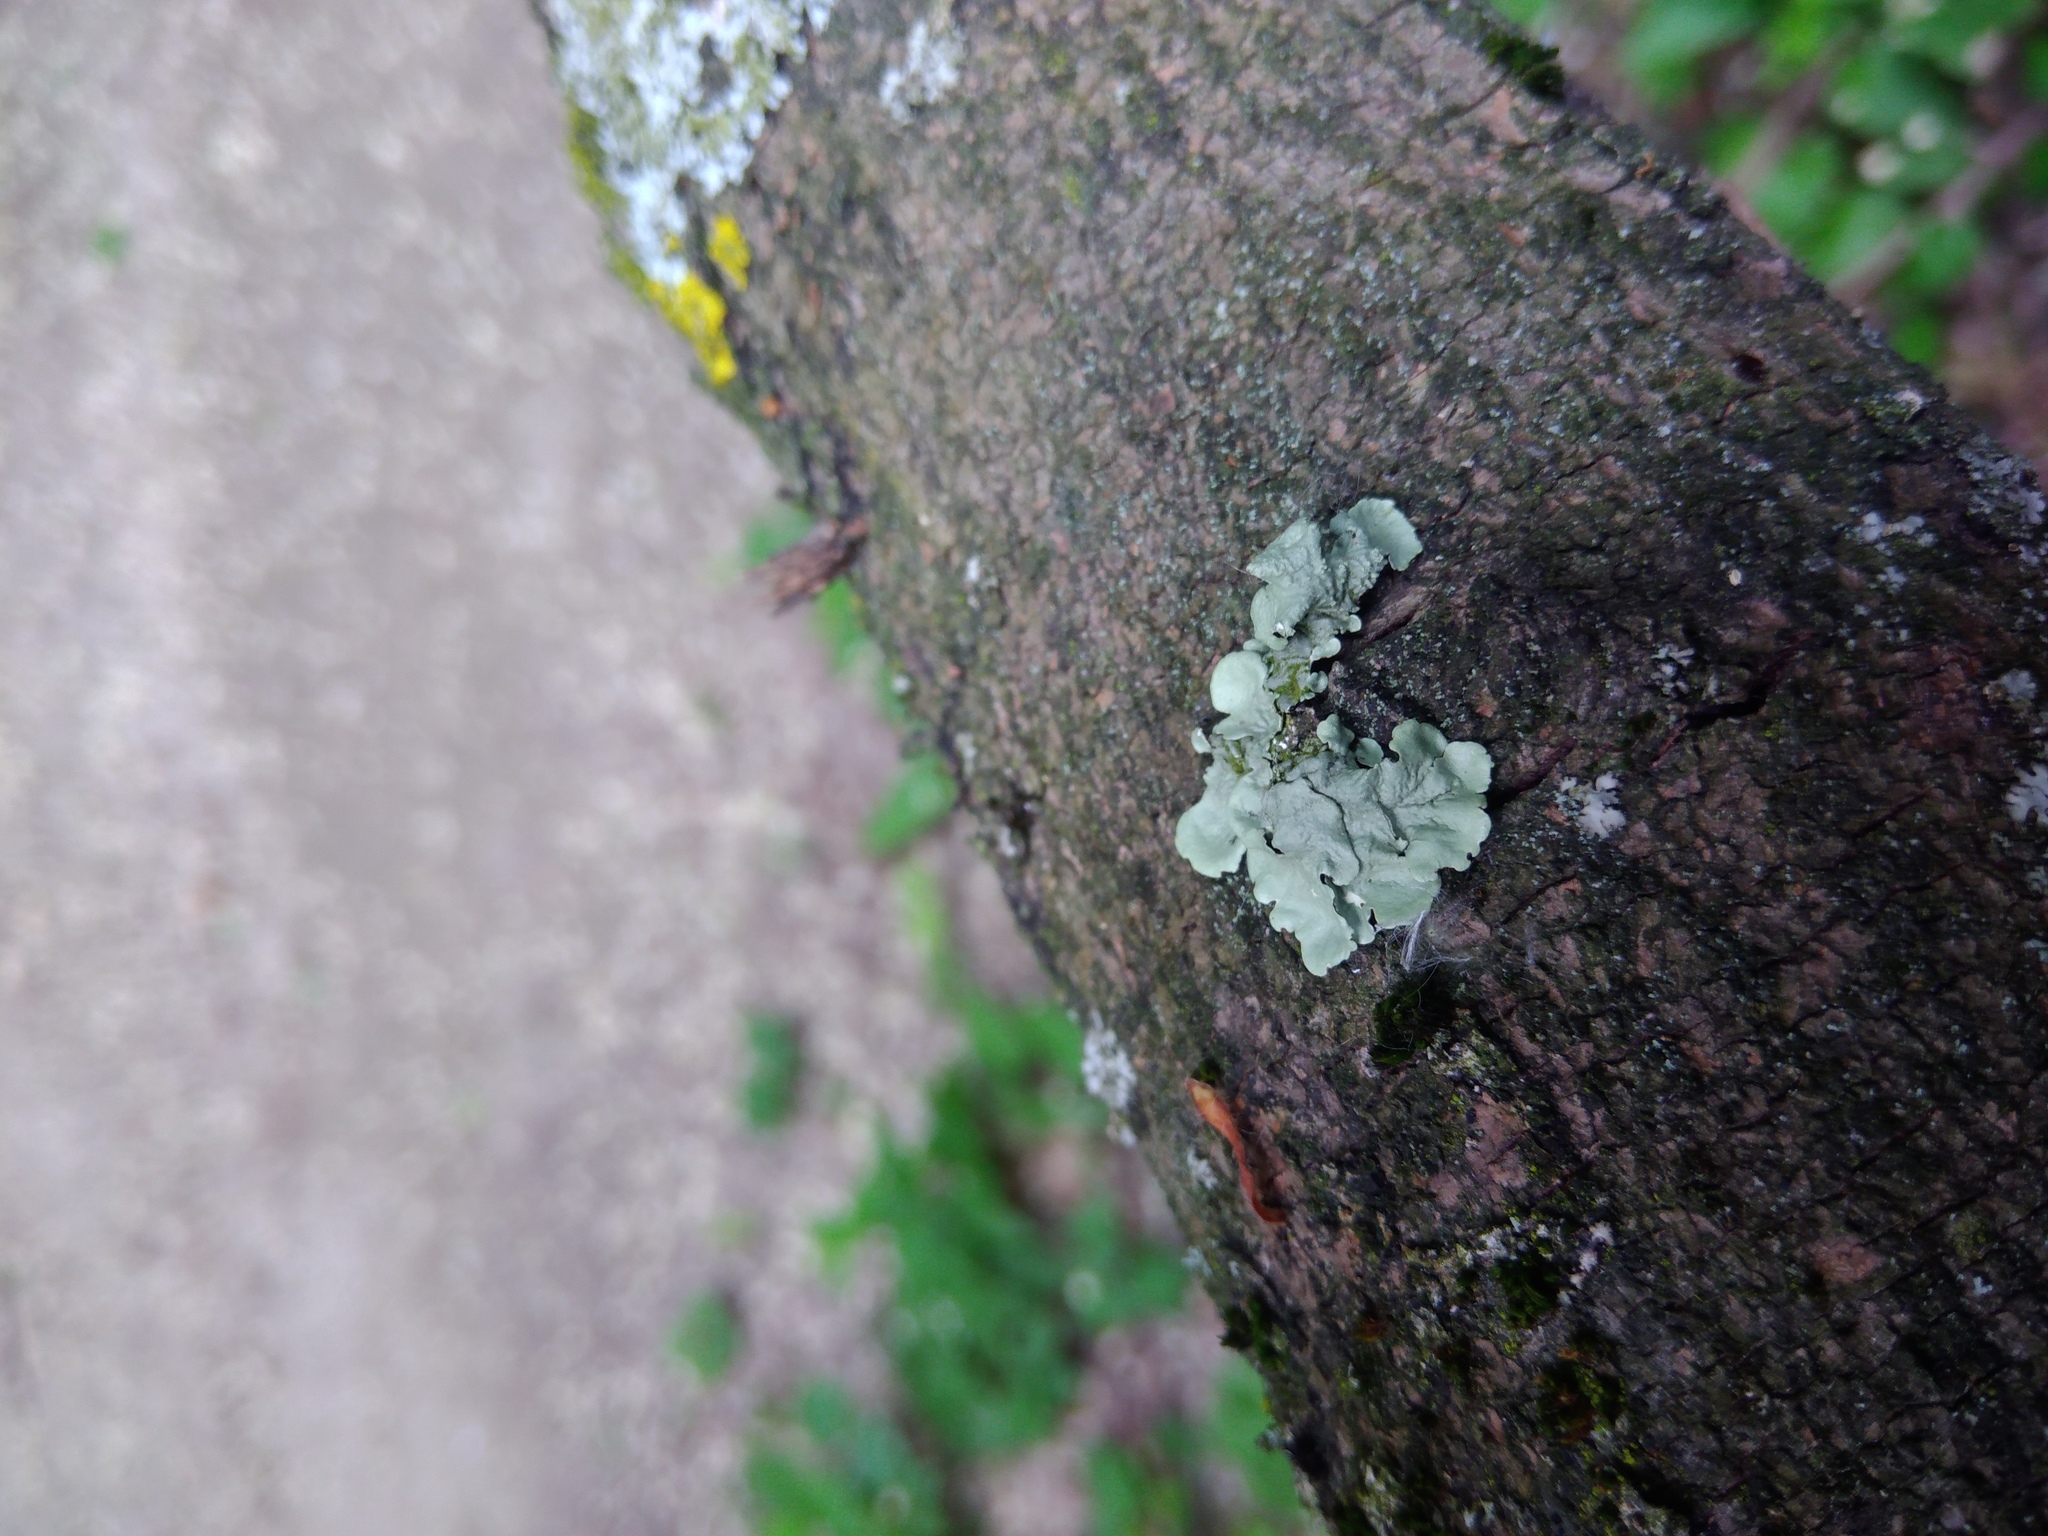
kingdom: Fungi
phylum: Ascomycota
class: Lecanoromycetes
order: Lecanorales
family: Parmeliaceae
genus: Flavoparmelia
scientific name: Flavoparmelia caperata
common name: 40-mile per hour lichen
